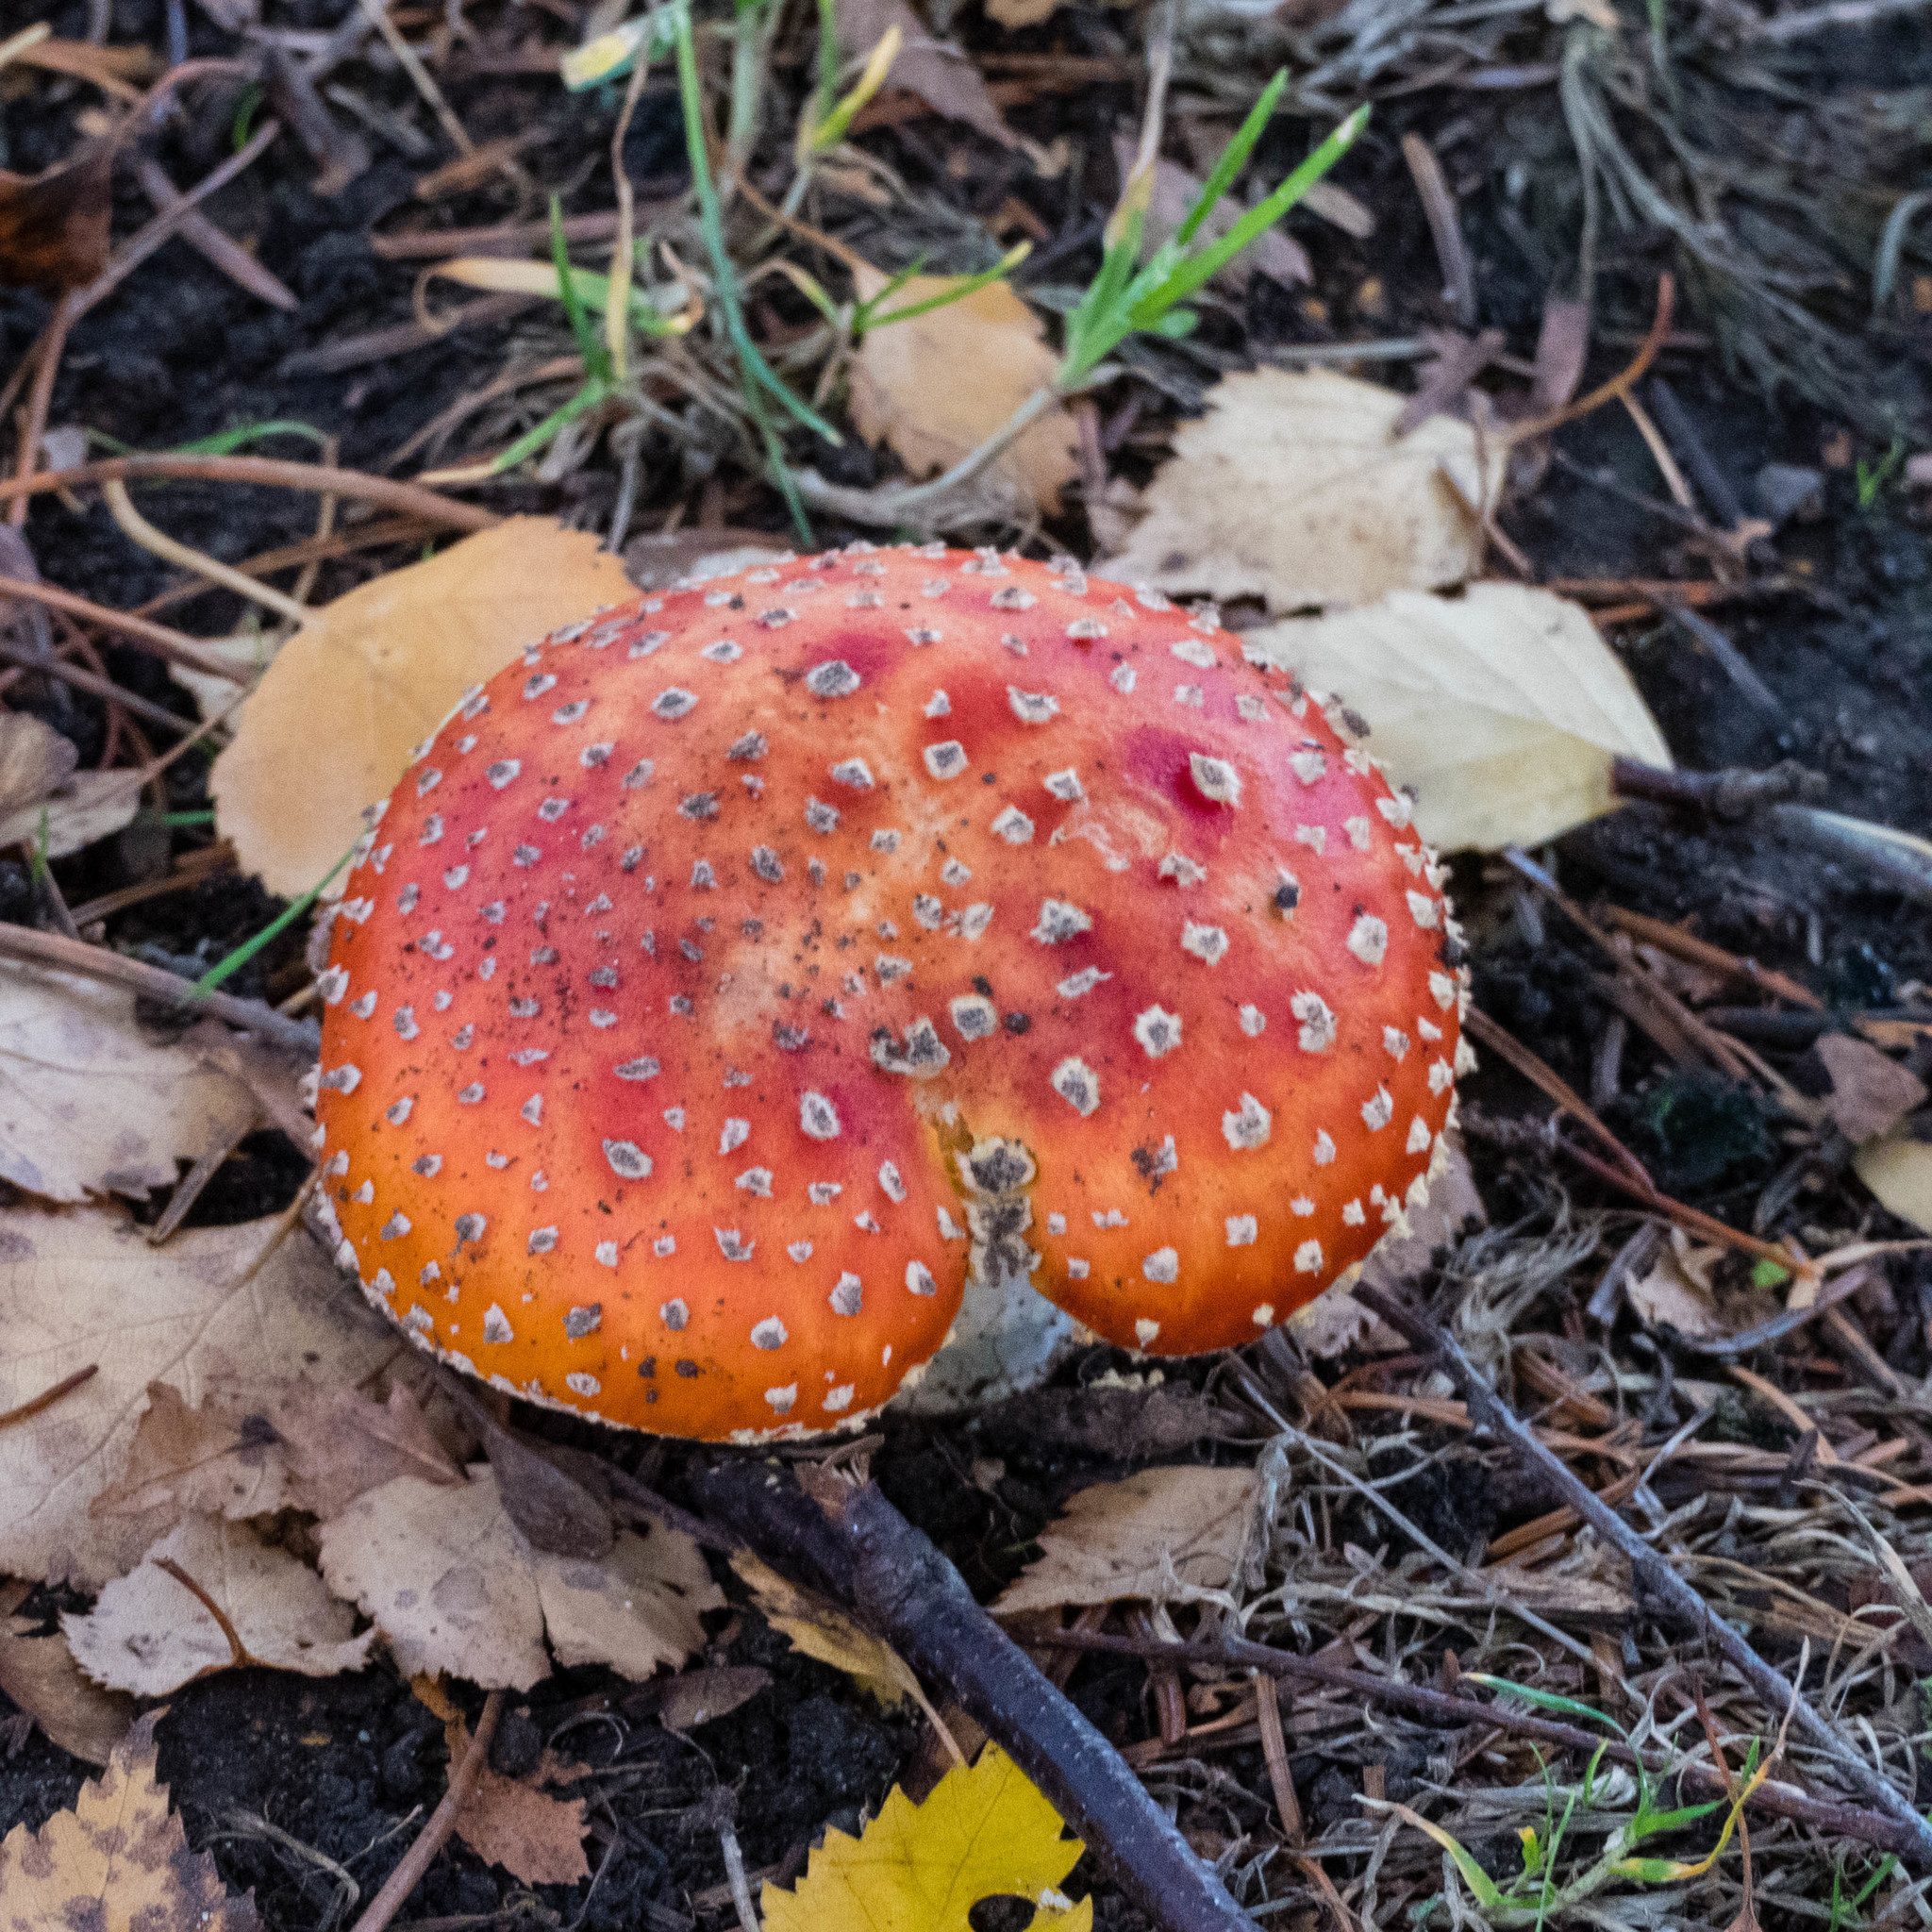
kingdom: Fungi
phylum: Basidiomycota
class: Agaricomycetes
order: Agaricales
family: Amanitaceae
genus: Amanita
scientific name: Amanita muscaria
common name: Fly agaric
